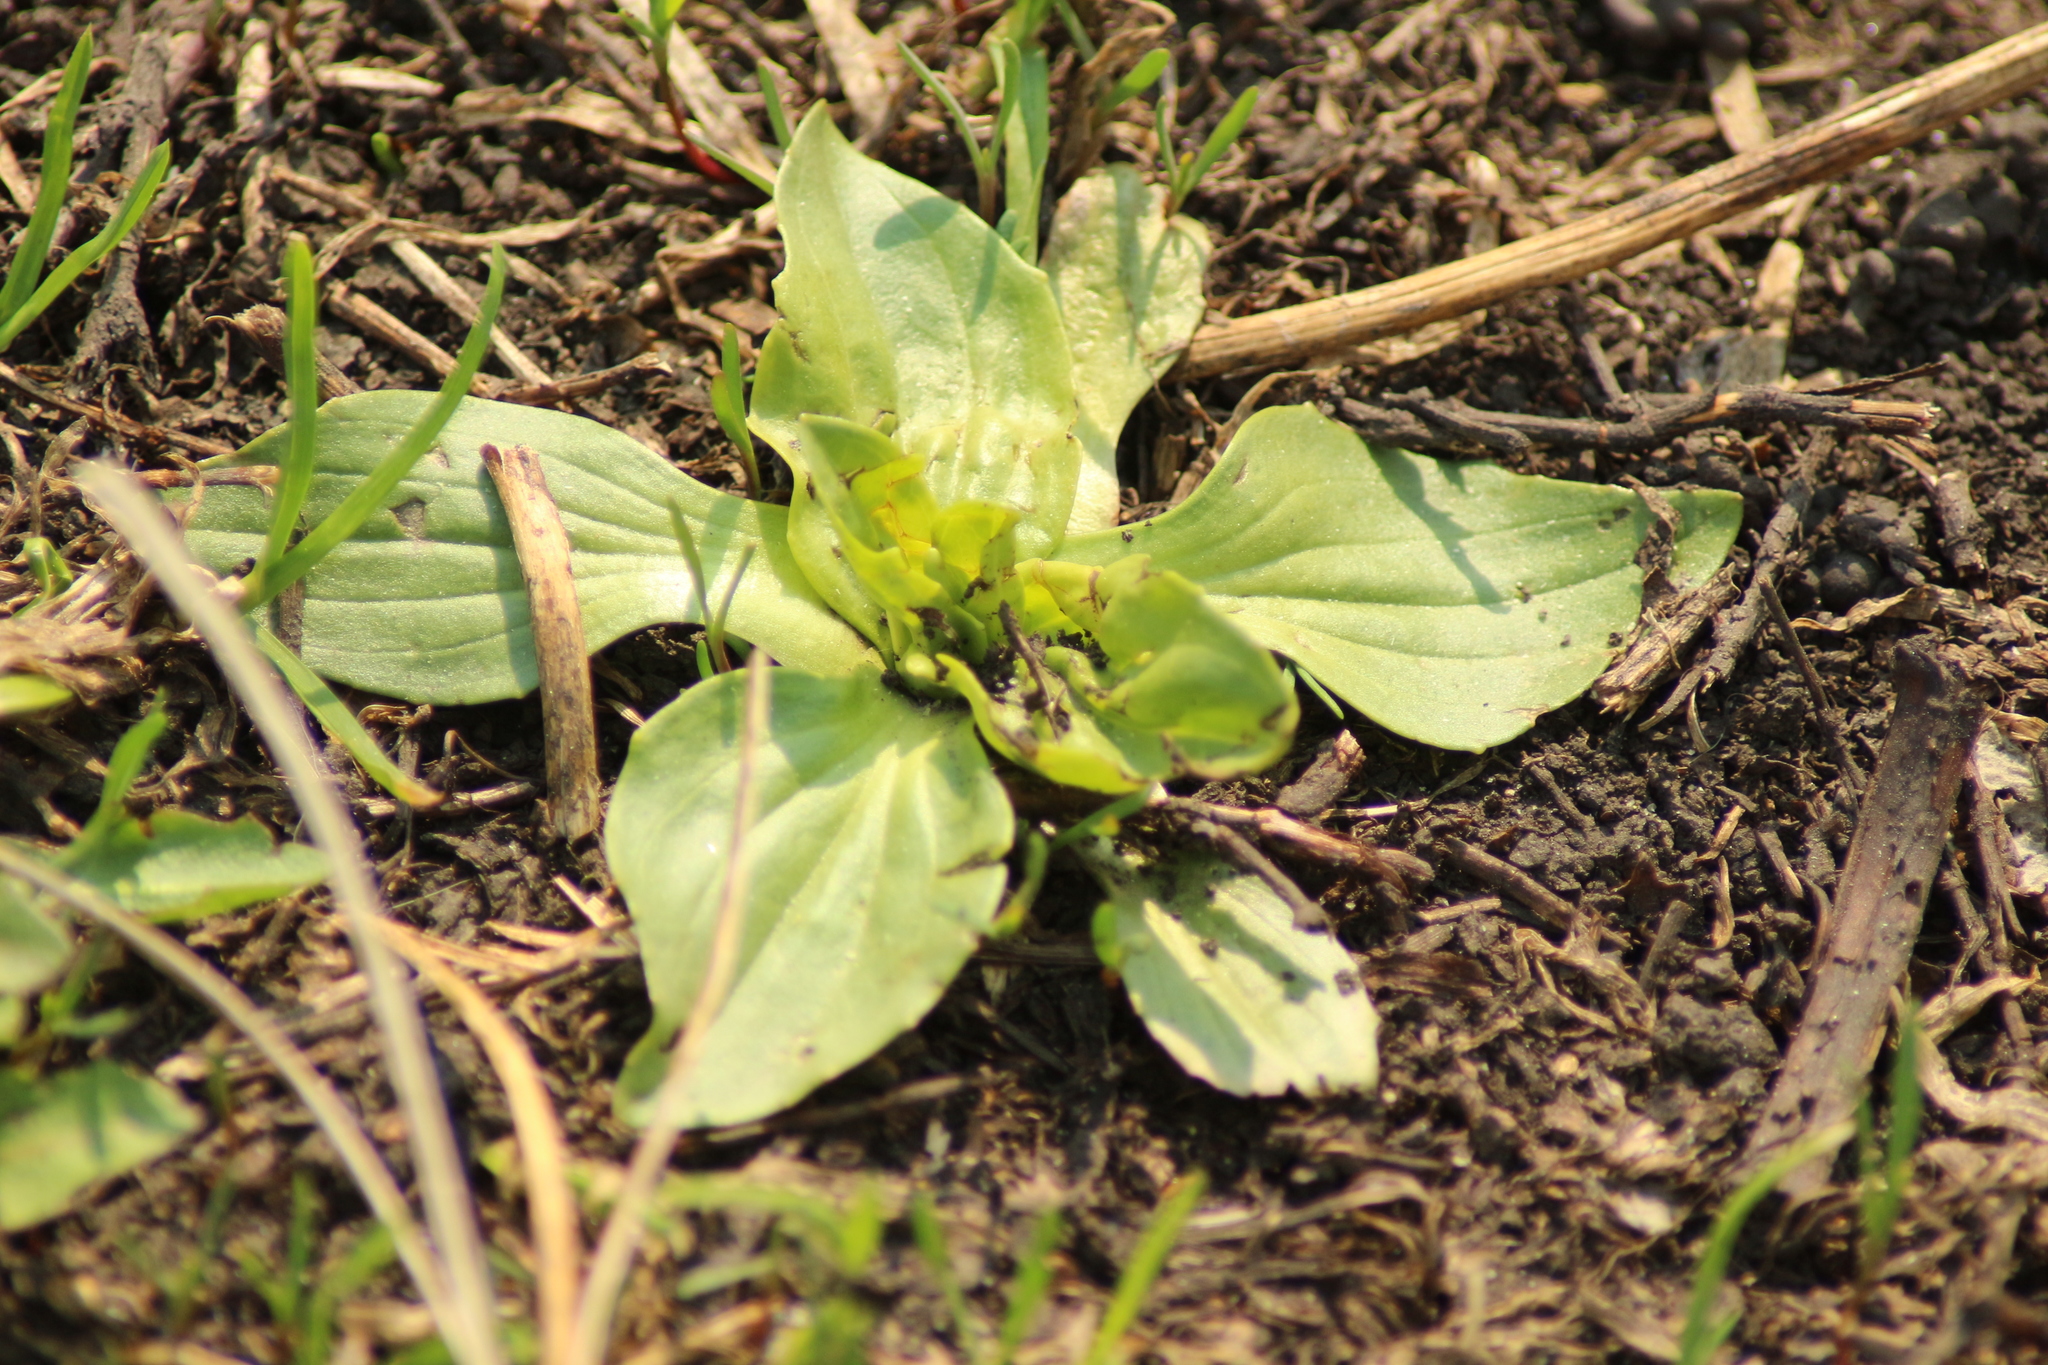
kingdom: Plantae
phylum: Tracheophyta
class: Magnoliopsida
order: Lamiales
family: Plantaginaceae
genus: Plantago
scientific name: Plantago major
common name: Common plantain
